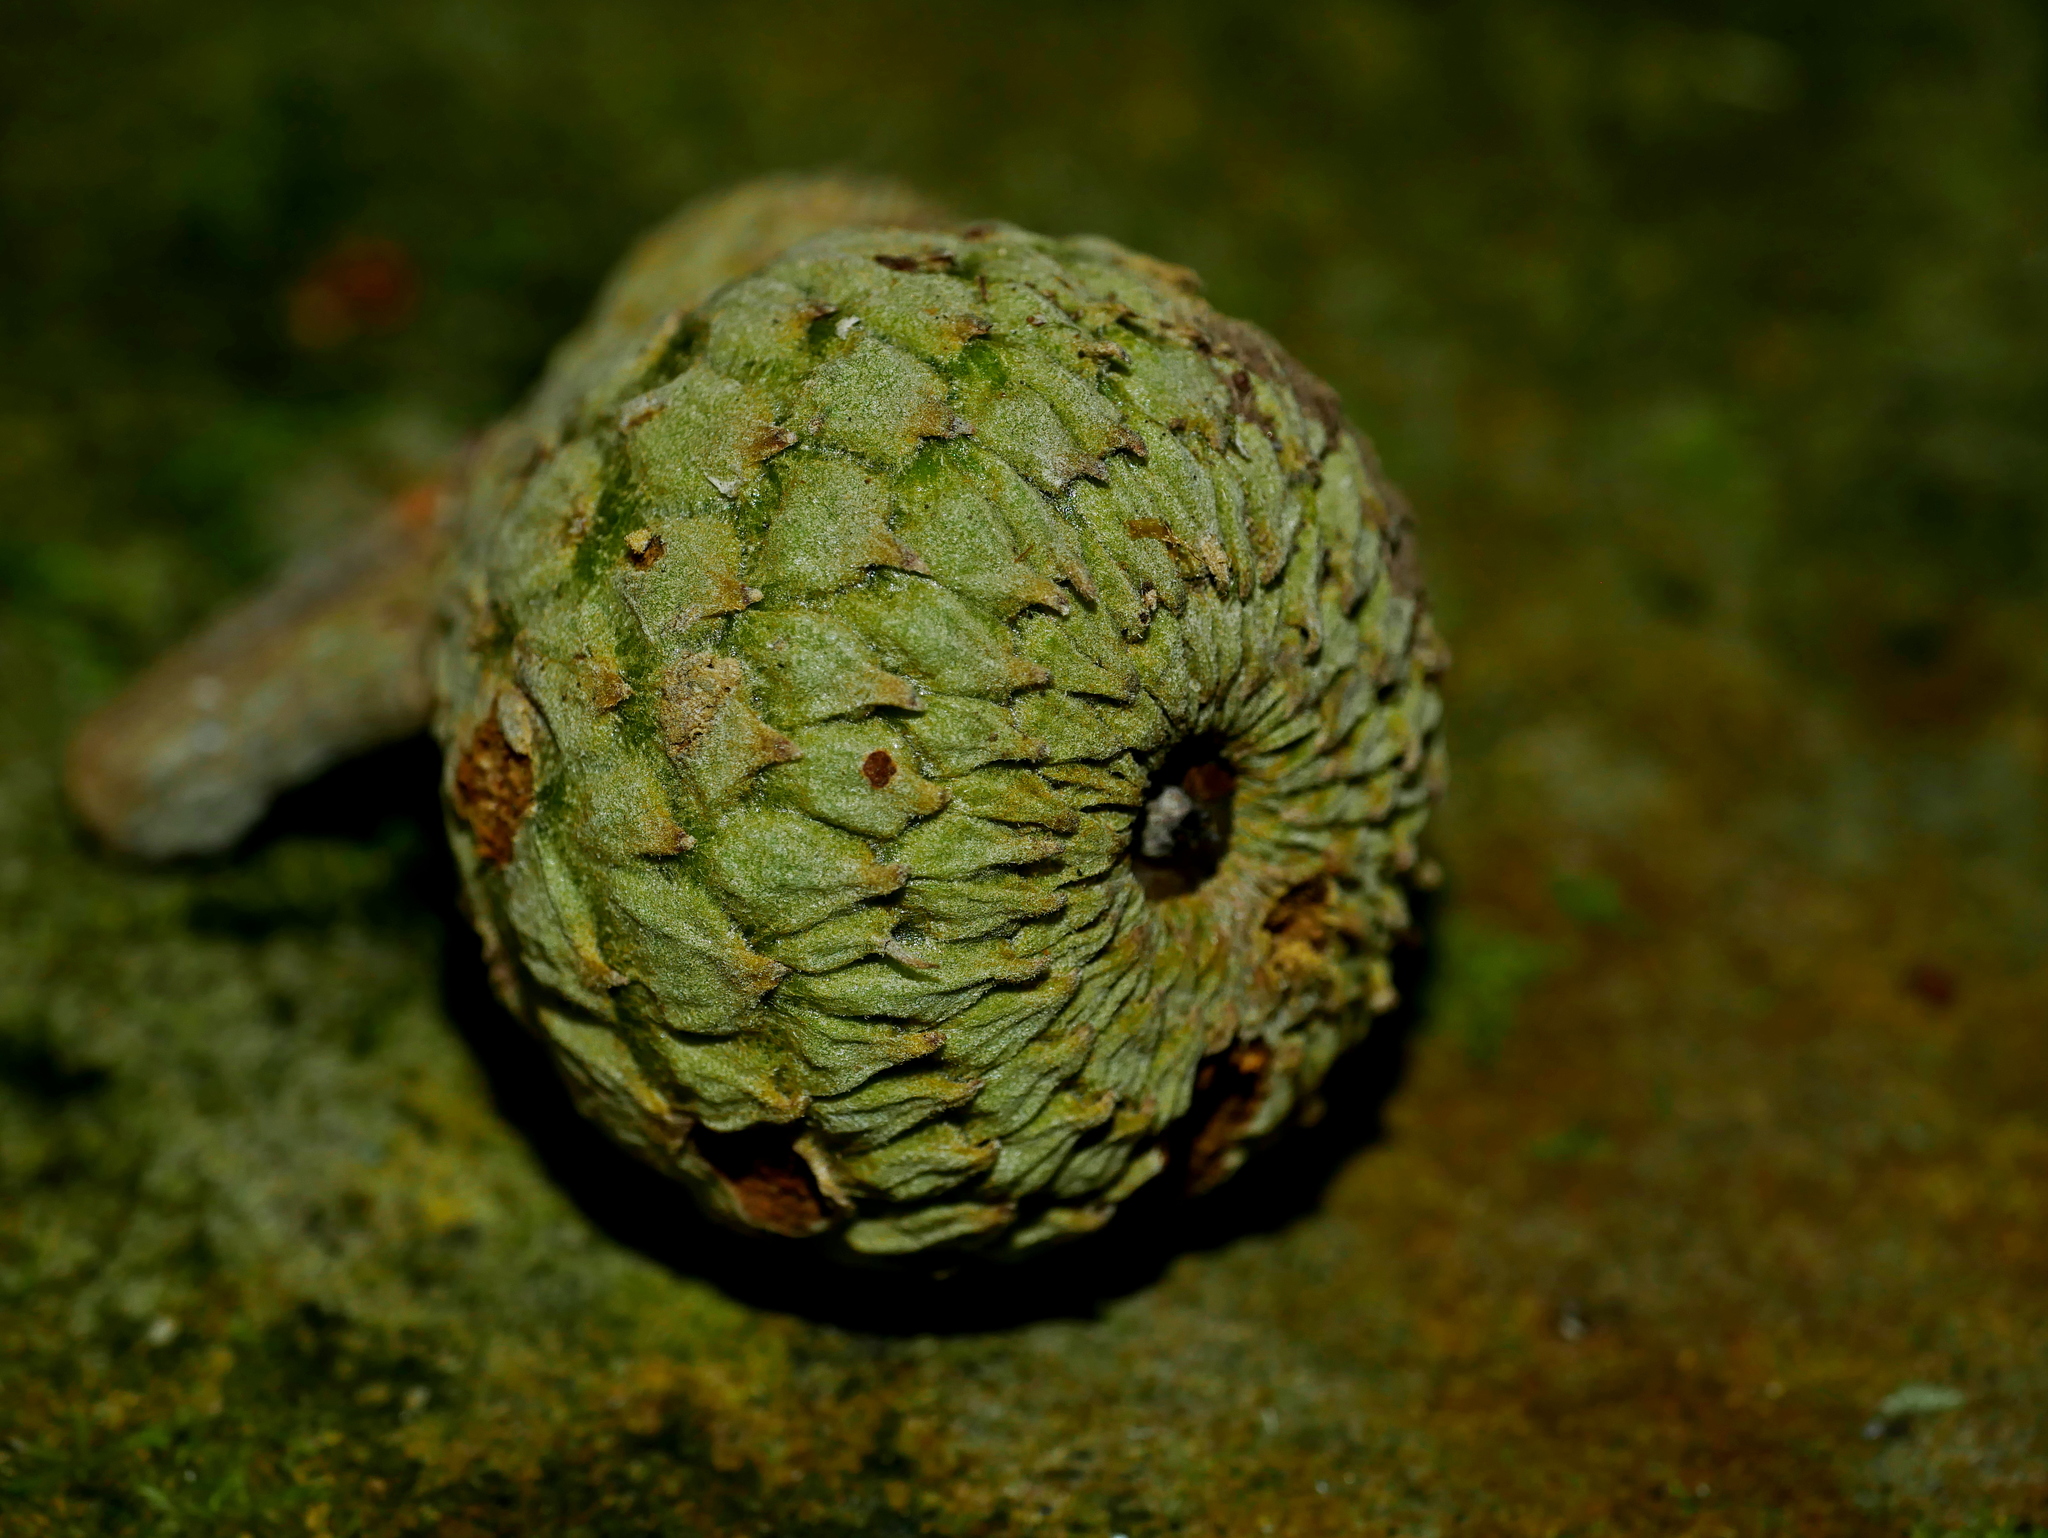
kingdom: Plantae
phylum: Tracheophyta
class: Magnoliopsida
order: Fagales
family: Fagaceae
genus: Lithocarpus
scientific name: Lithocarpus amygdalifolius
